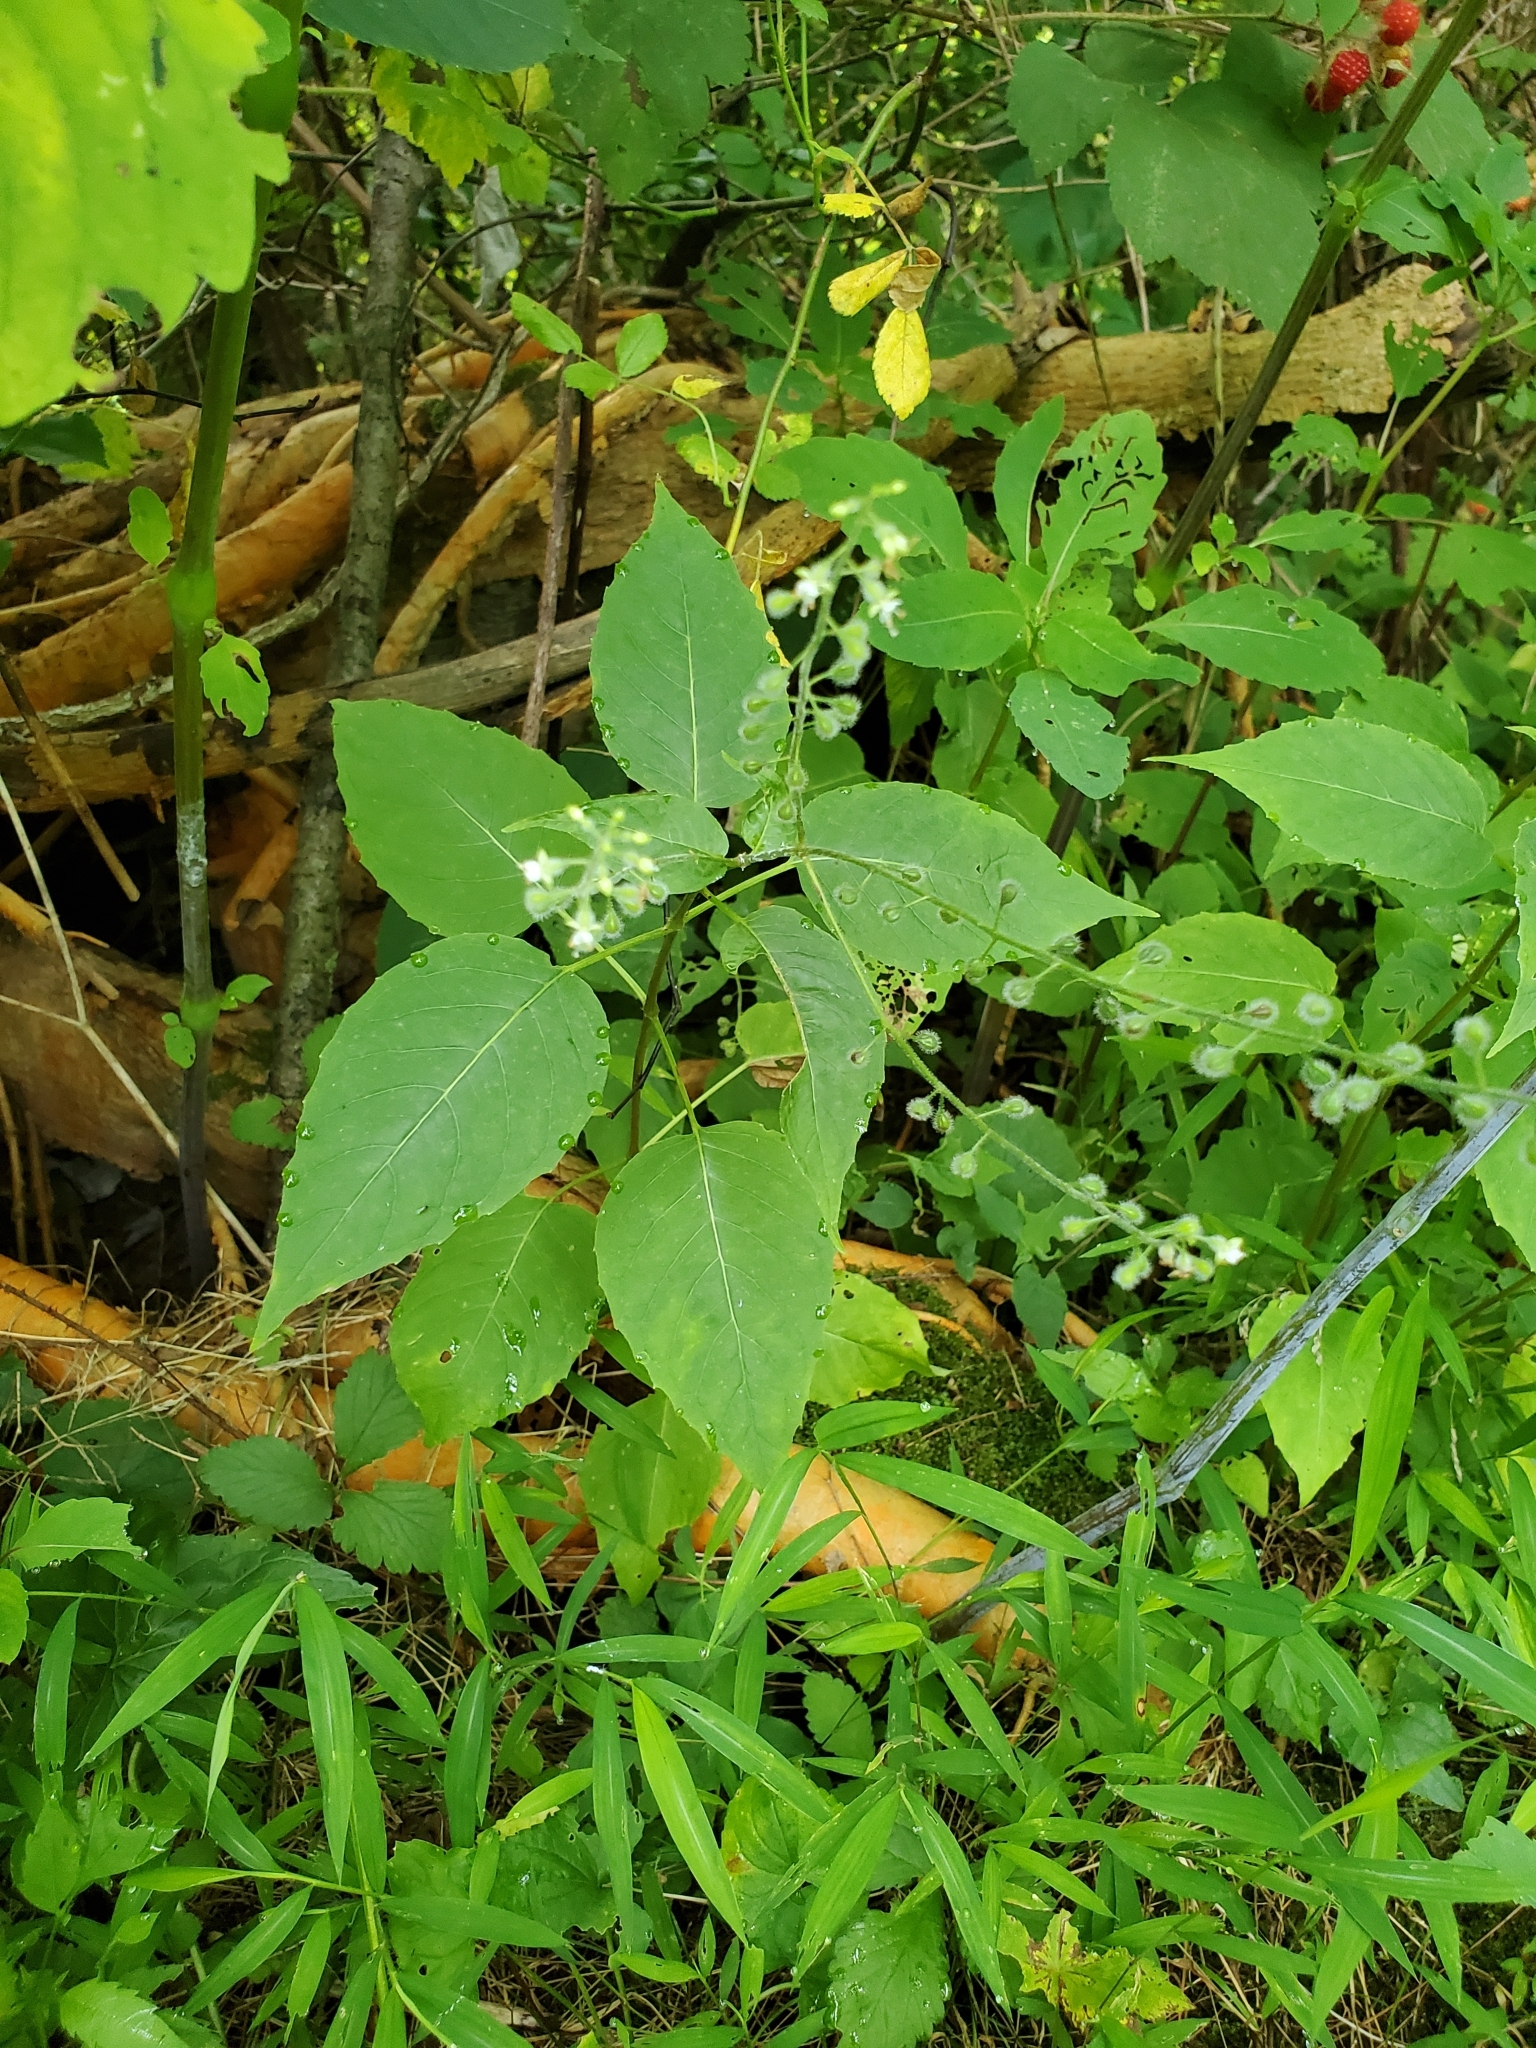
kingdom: Plantae
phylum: Tracheophyta
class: Magnoliopsida
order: Myrtales
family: Onagraceae
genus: Circaea
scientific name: Circaea canadensis
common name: Broad-leaved enchanter's nightshade
